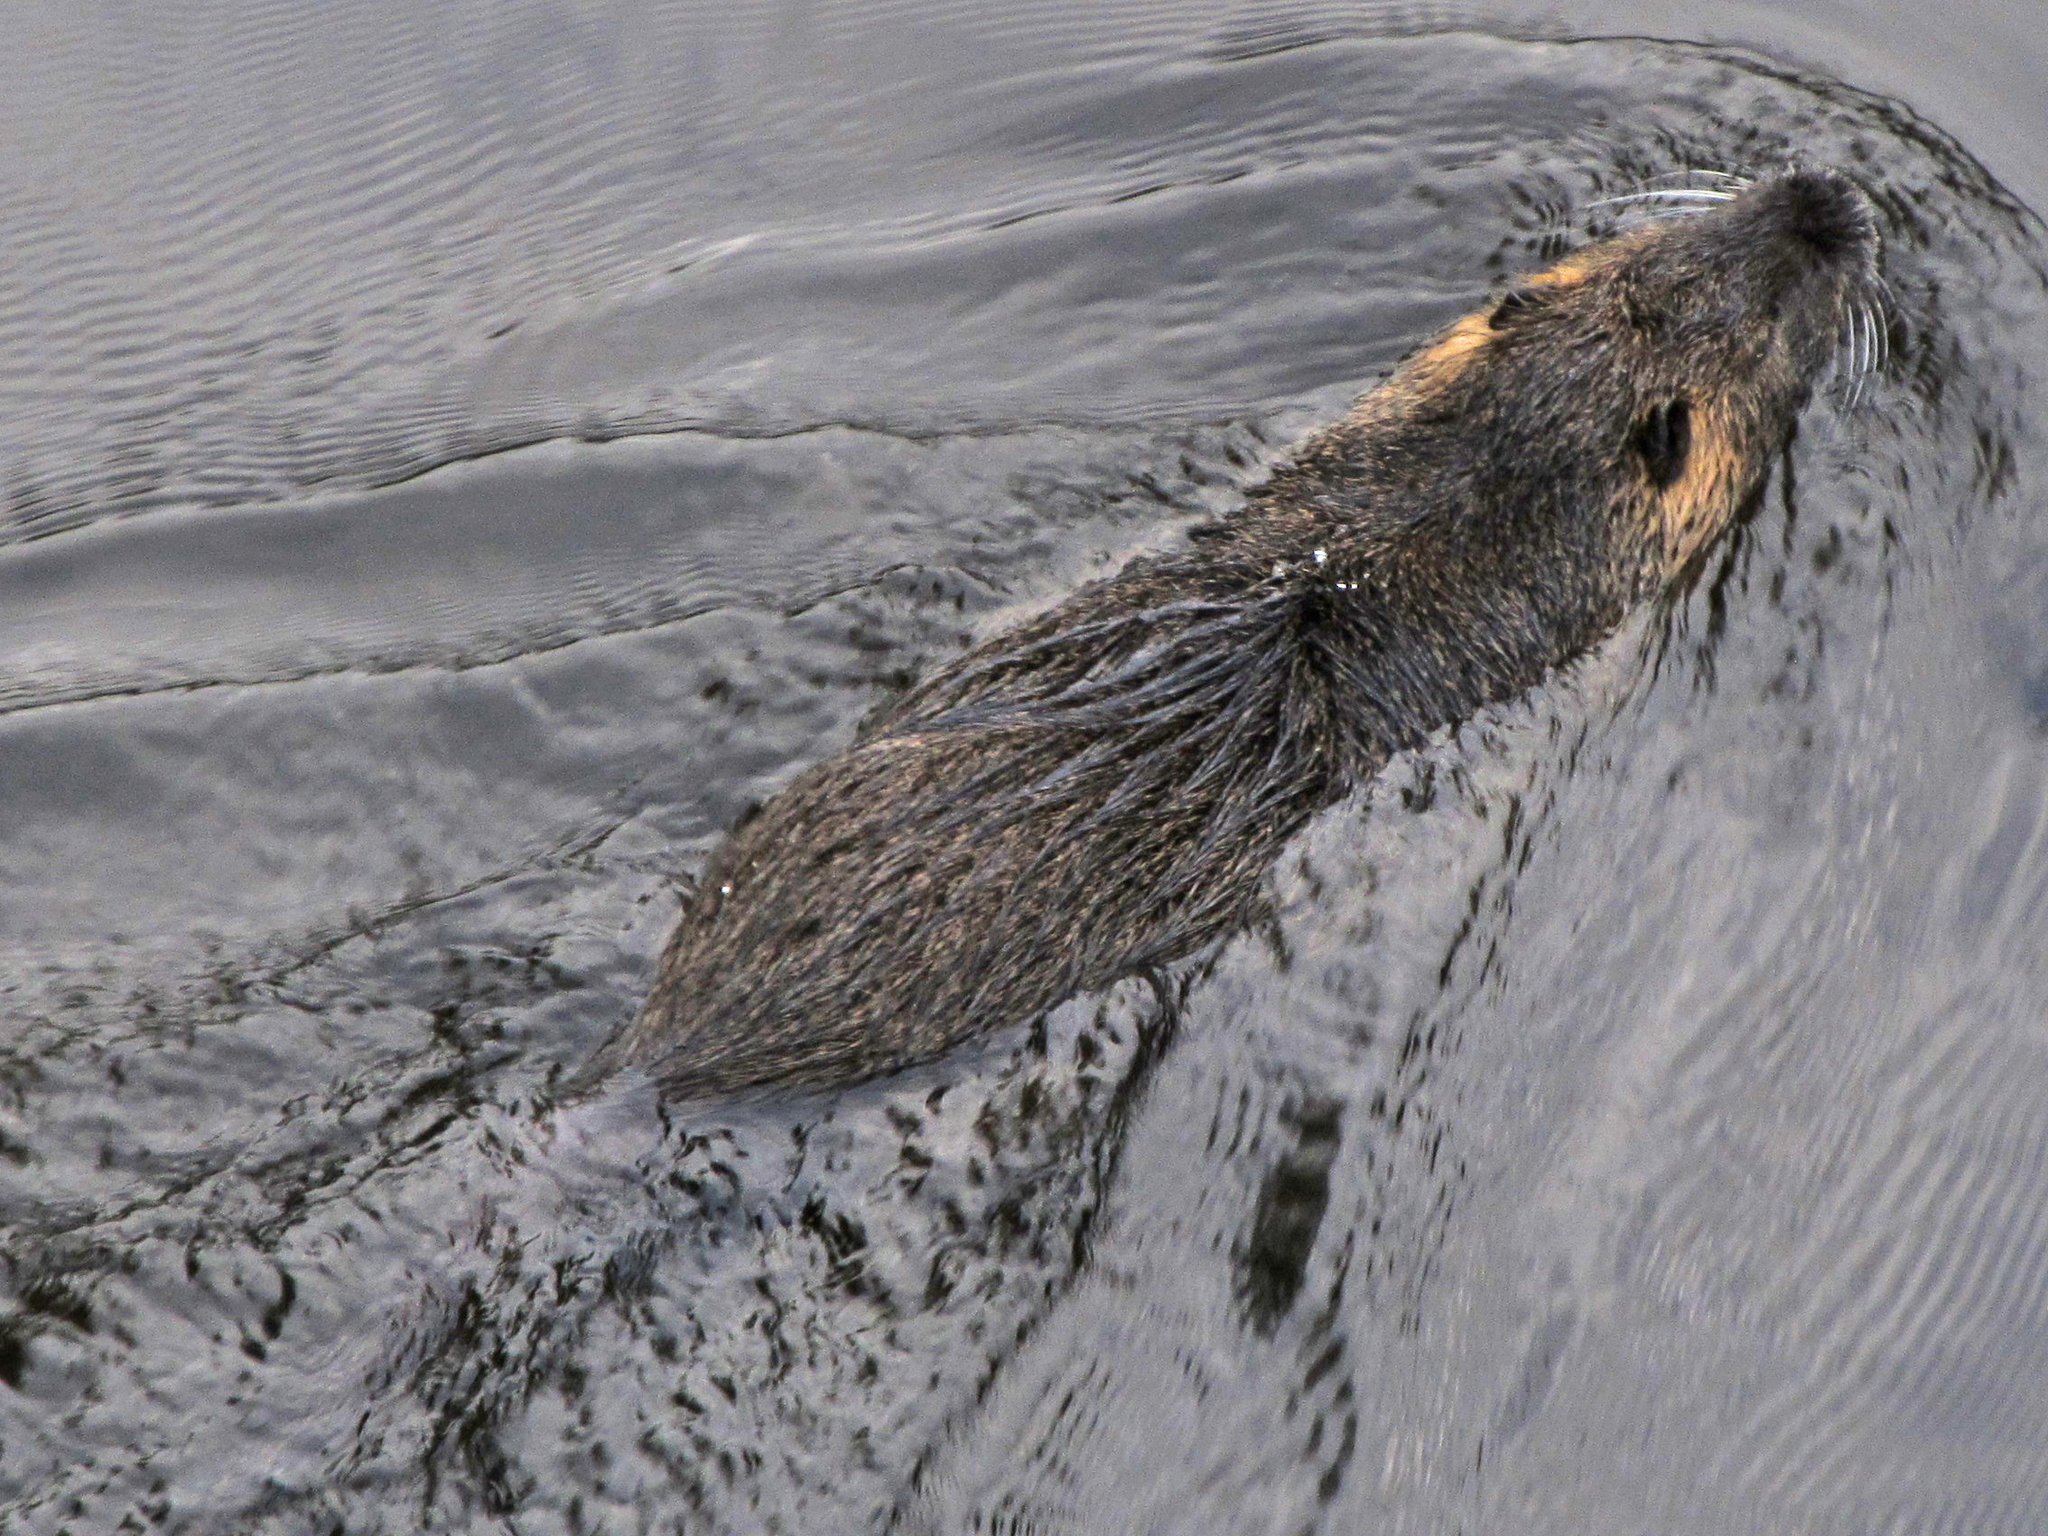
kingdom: Animalia
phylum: Chordata
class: Mammalia
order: Rodentia
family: Myocastoridae
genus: Myocastor
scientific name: Myocastor coypus
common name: Coypu
